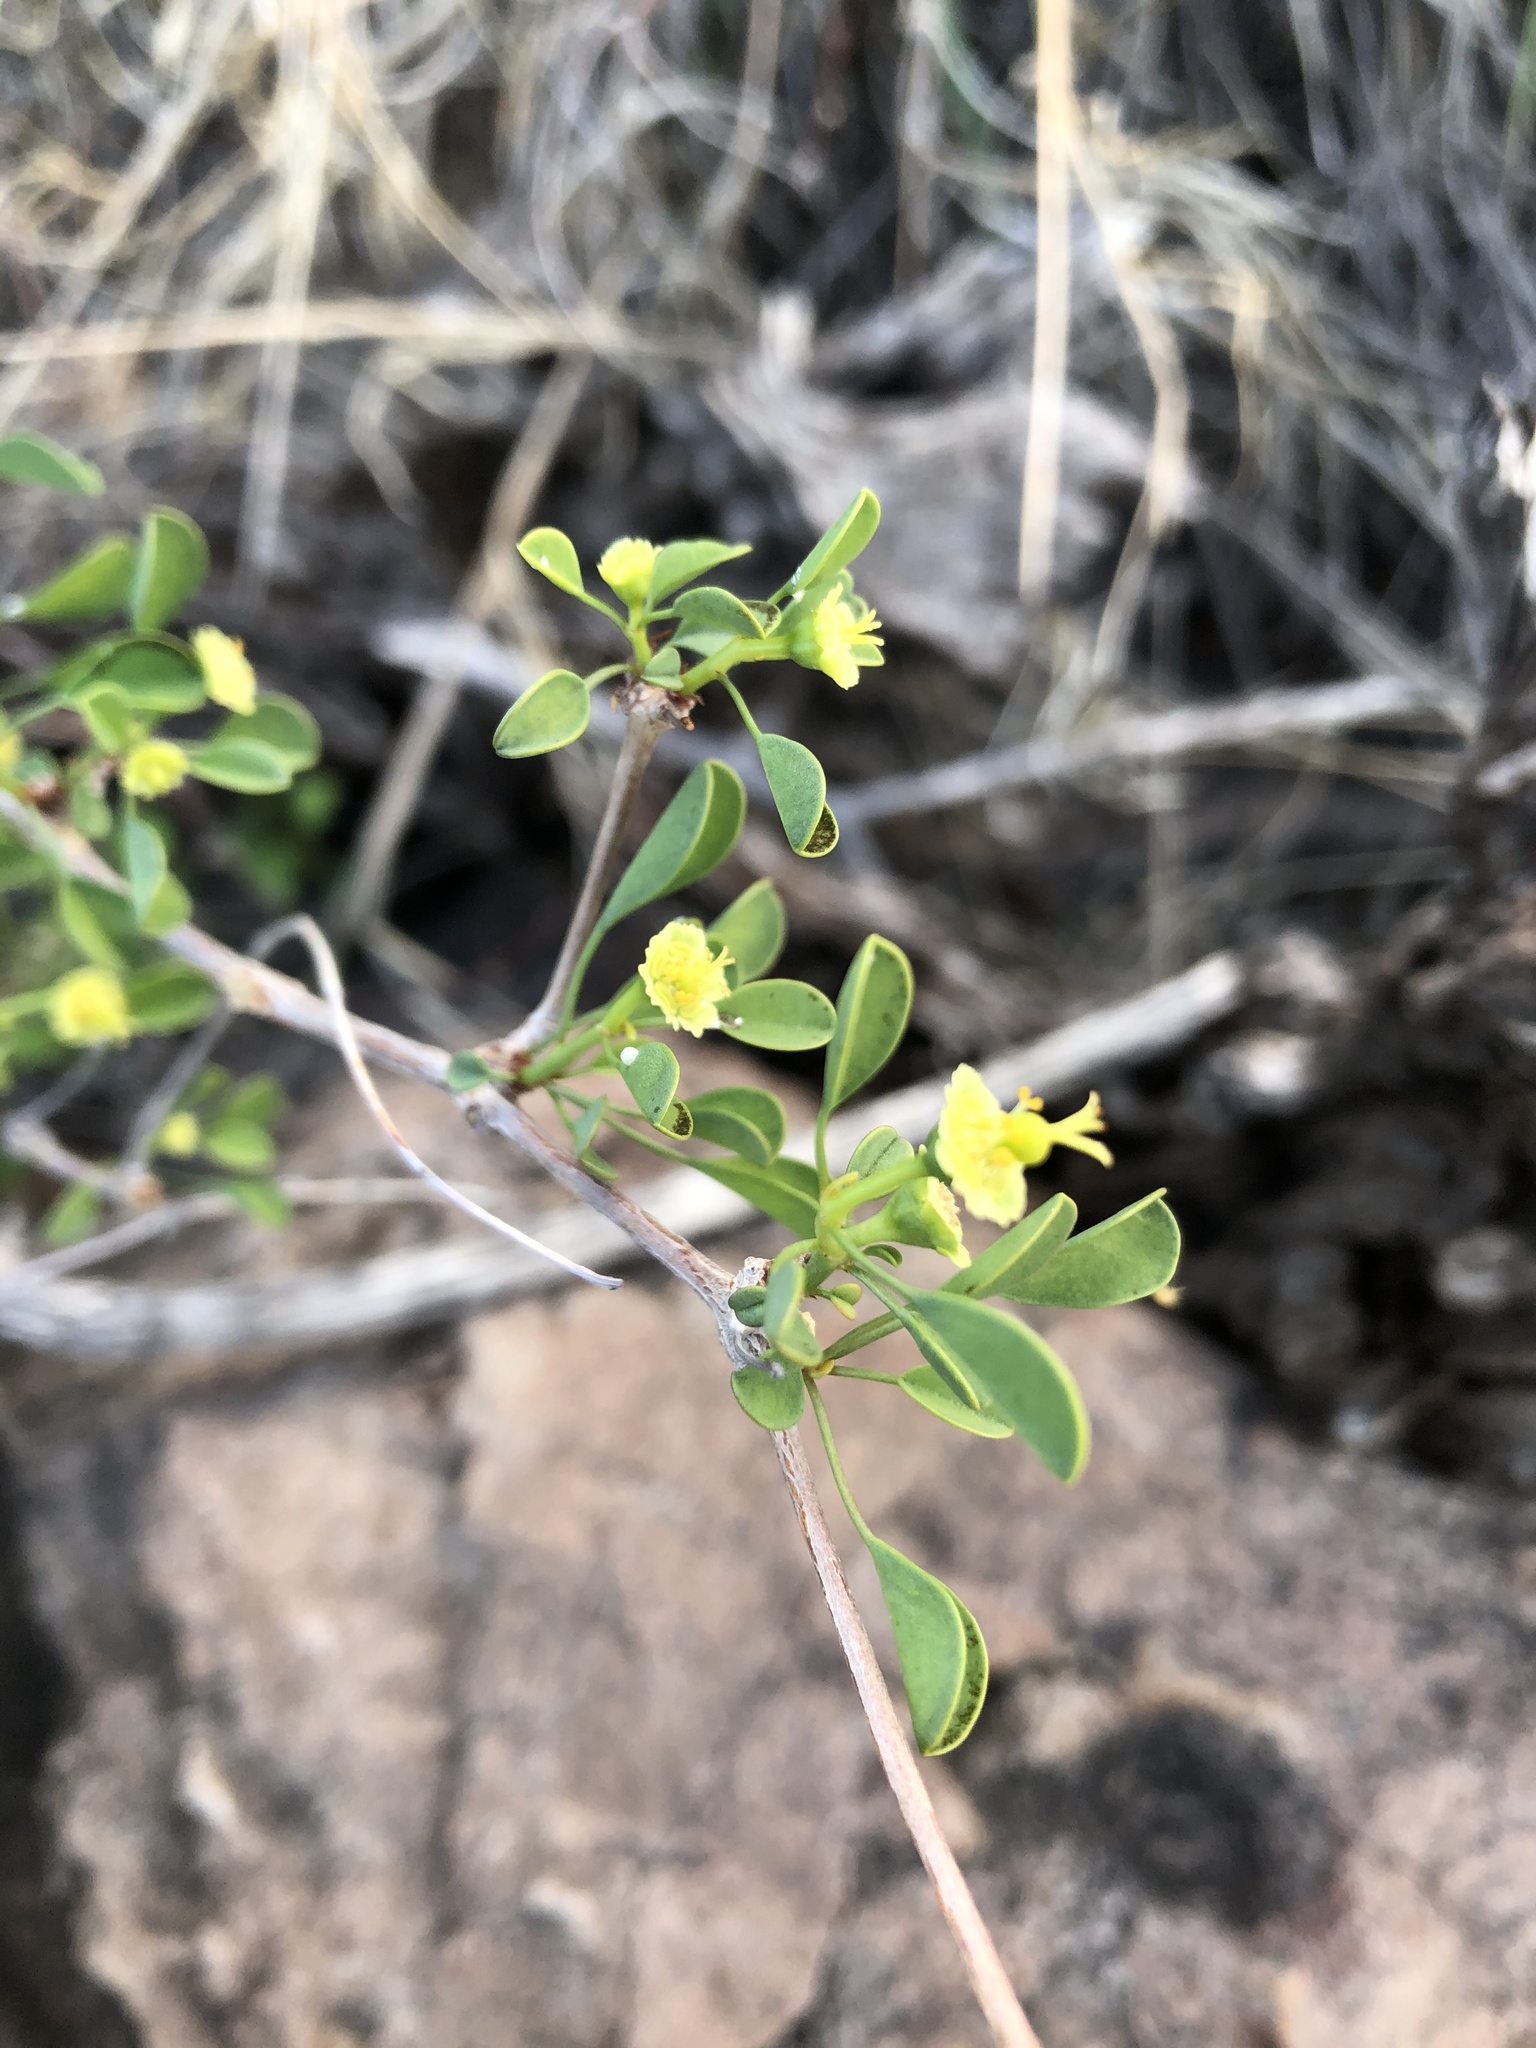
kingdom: Plantae
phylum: Tracheophyta
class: Magnoliopsida
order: Malpighiales
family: Euphorbiaceae
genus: Euphorbia
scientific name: Euphorbia californica
